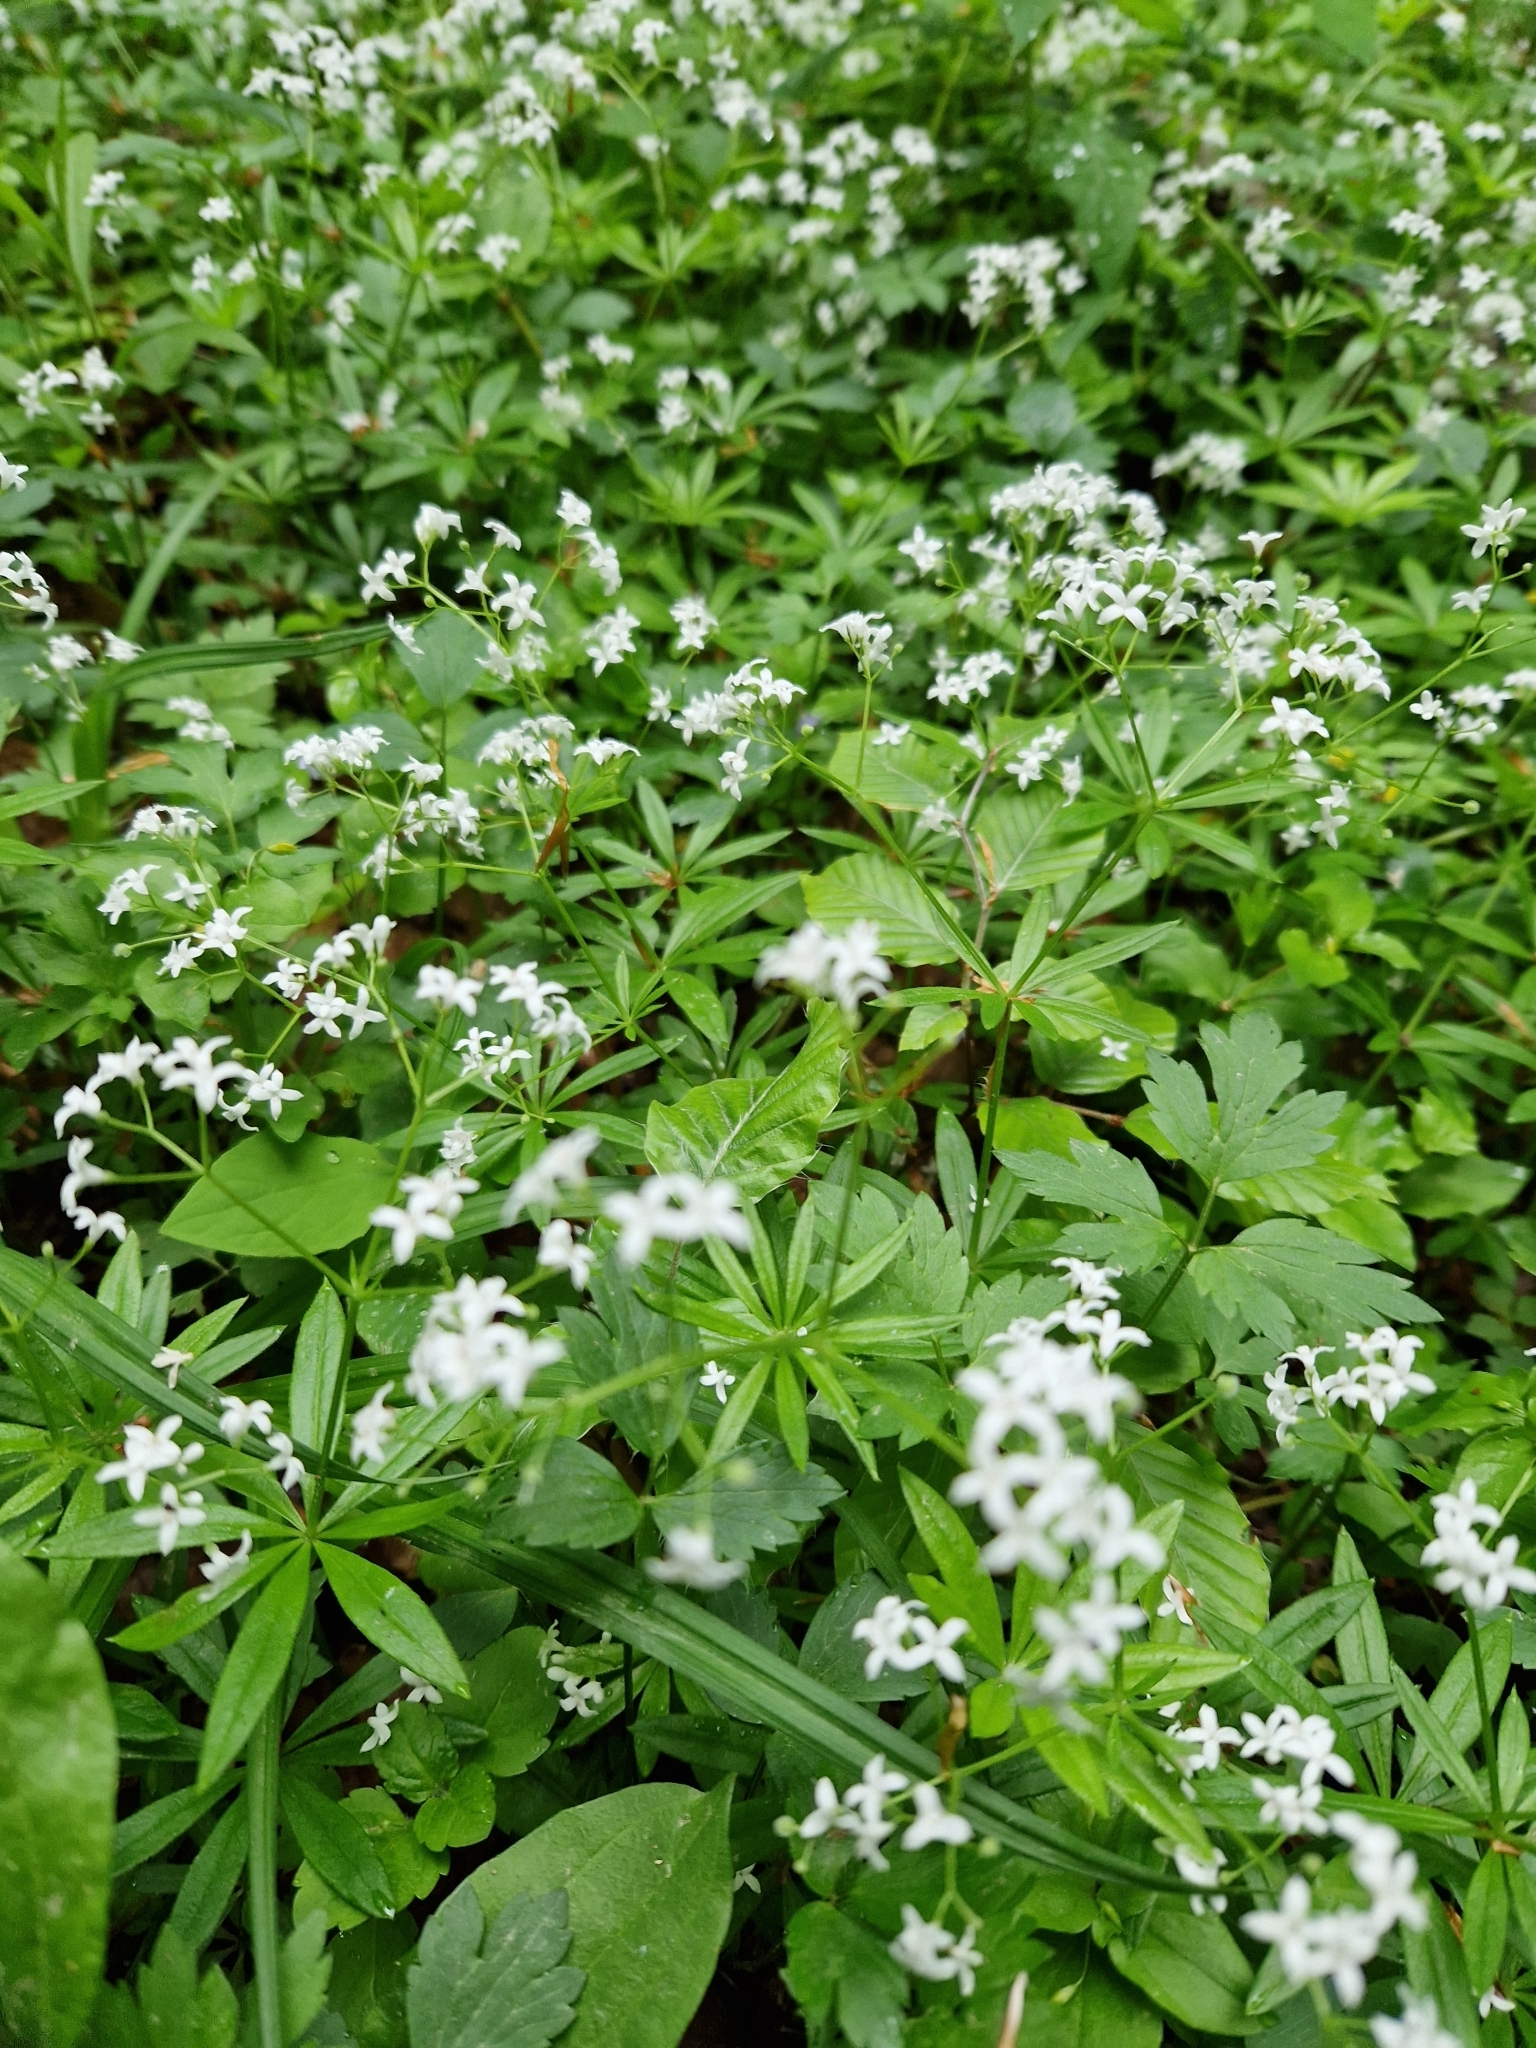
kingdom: Plantae
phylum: Tracheophyta
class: Magnoliopsida
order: Gentianales
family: Rubiaceae
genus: Galium
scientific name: Galium odoratum
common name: Sweet woodruff
